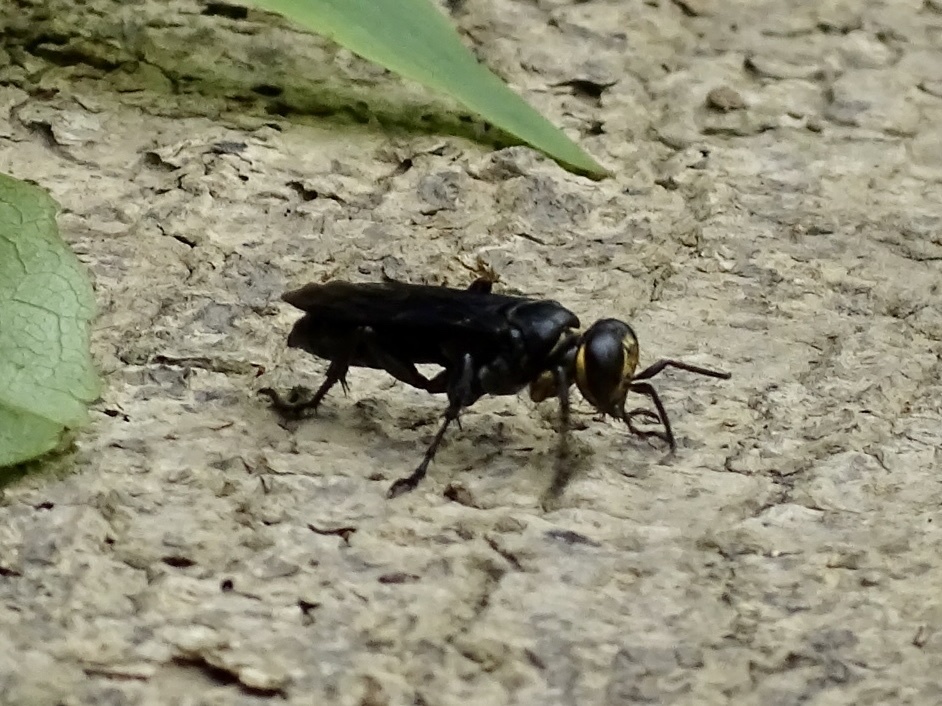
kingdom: Animalia
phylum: Arthropoda
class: Insecta
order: Hymenoptera
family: Crabronidae
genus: Liris
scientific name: Liris anthracinus
